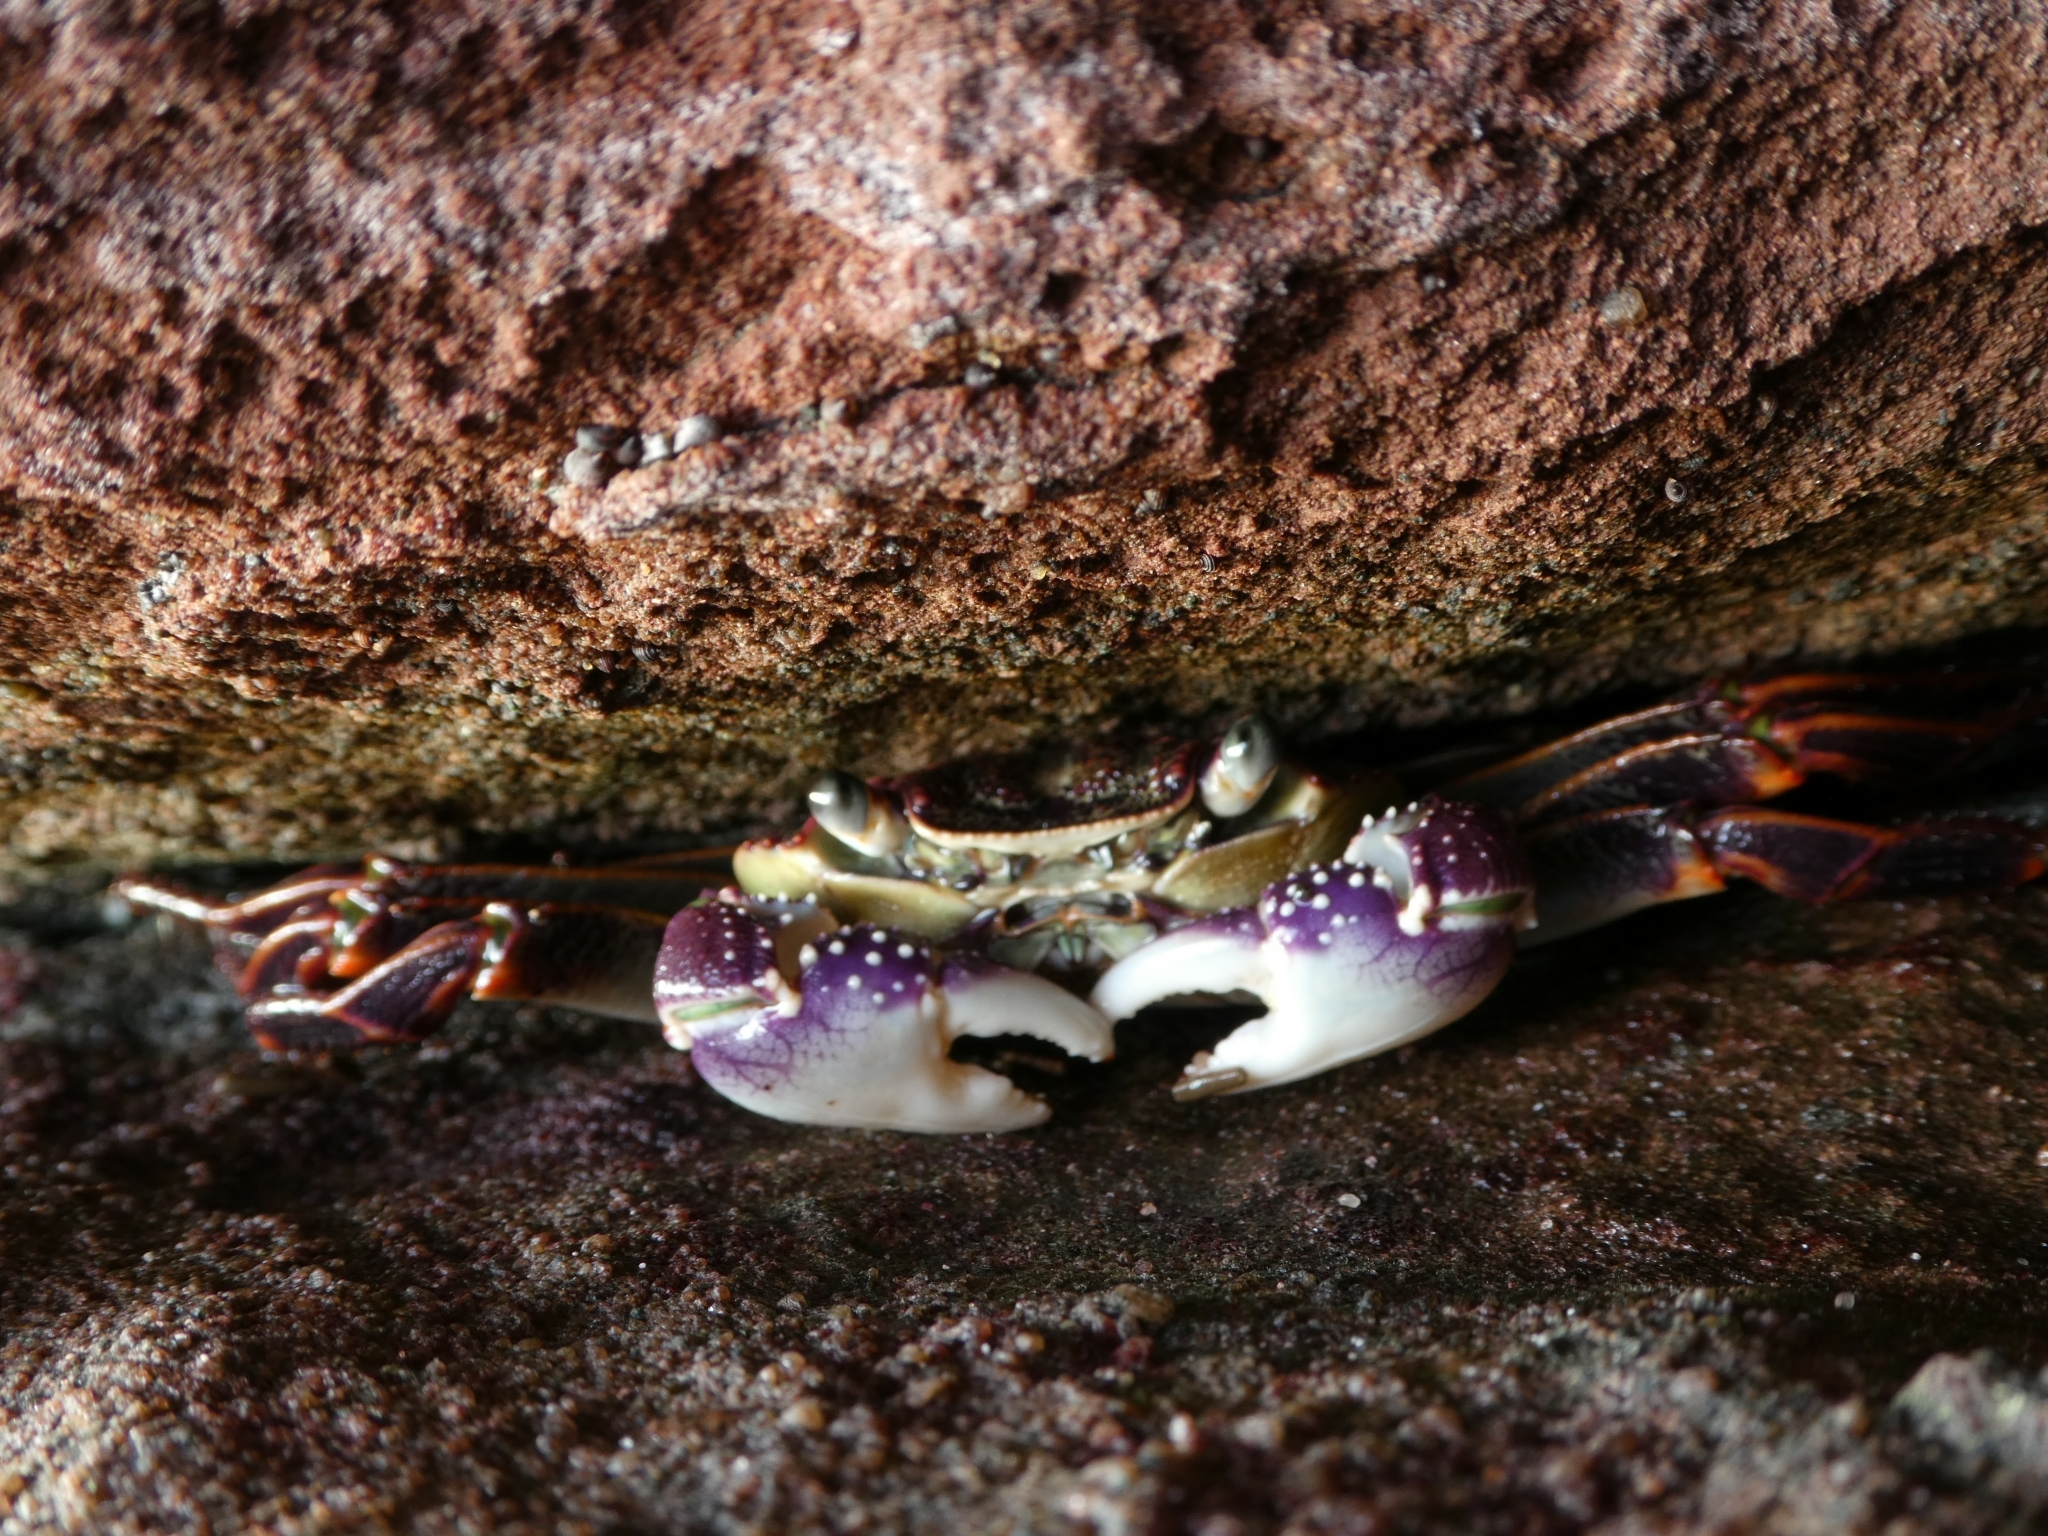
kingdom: Animalia
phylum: Arthropoda
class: Malacostraca
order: Decapoda
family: Grapsidae
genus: Leptograpsus
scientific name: Leptograpsus variegatus
